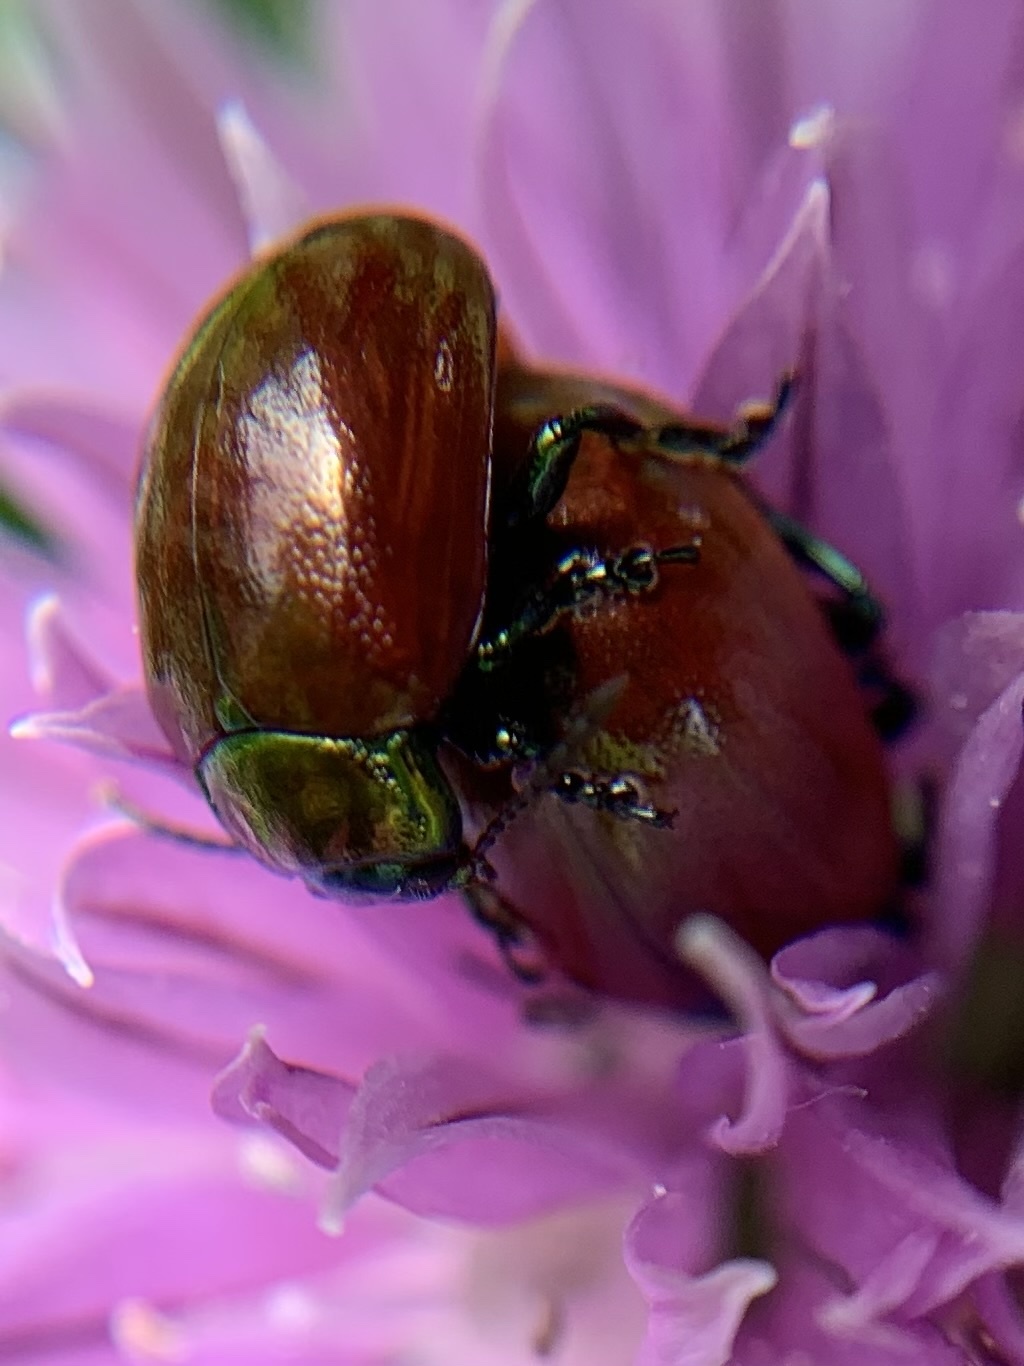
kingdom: Animalia
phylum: Arthropoda
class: Insecta
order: Coleoptera
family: Chrysomelidae
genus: Chrysomela
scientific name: Chrysomela polita
